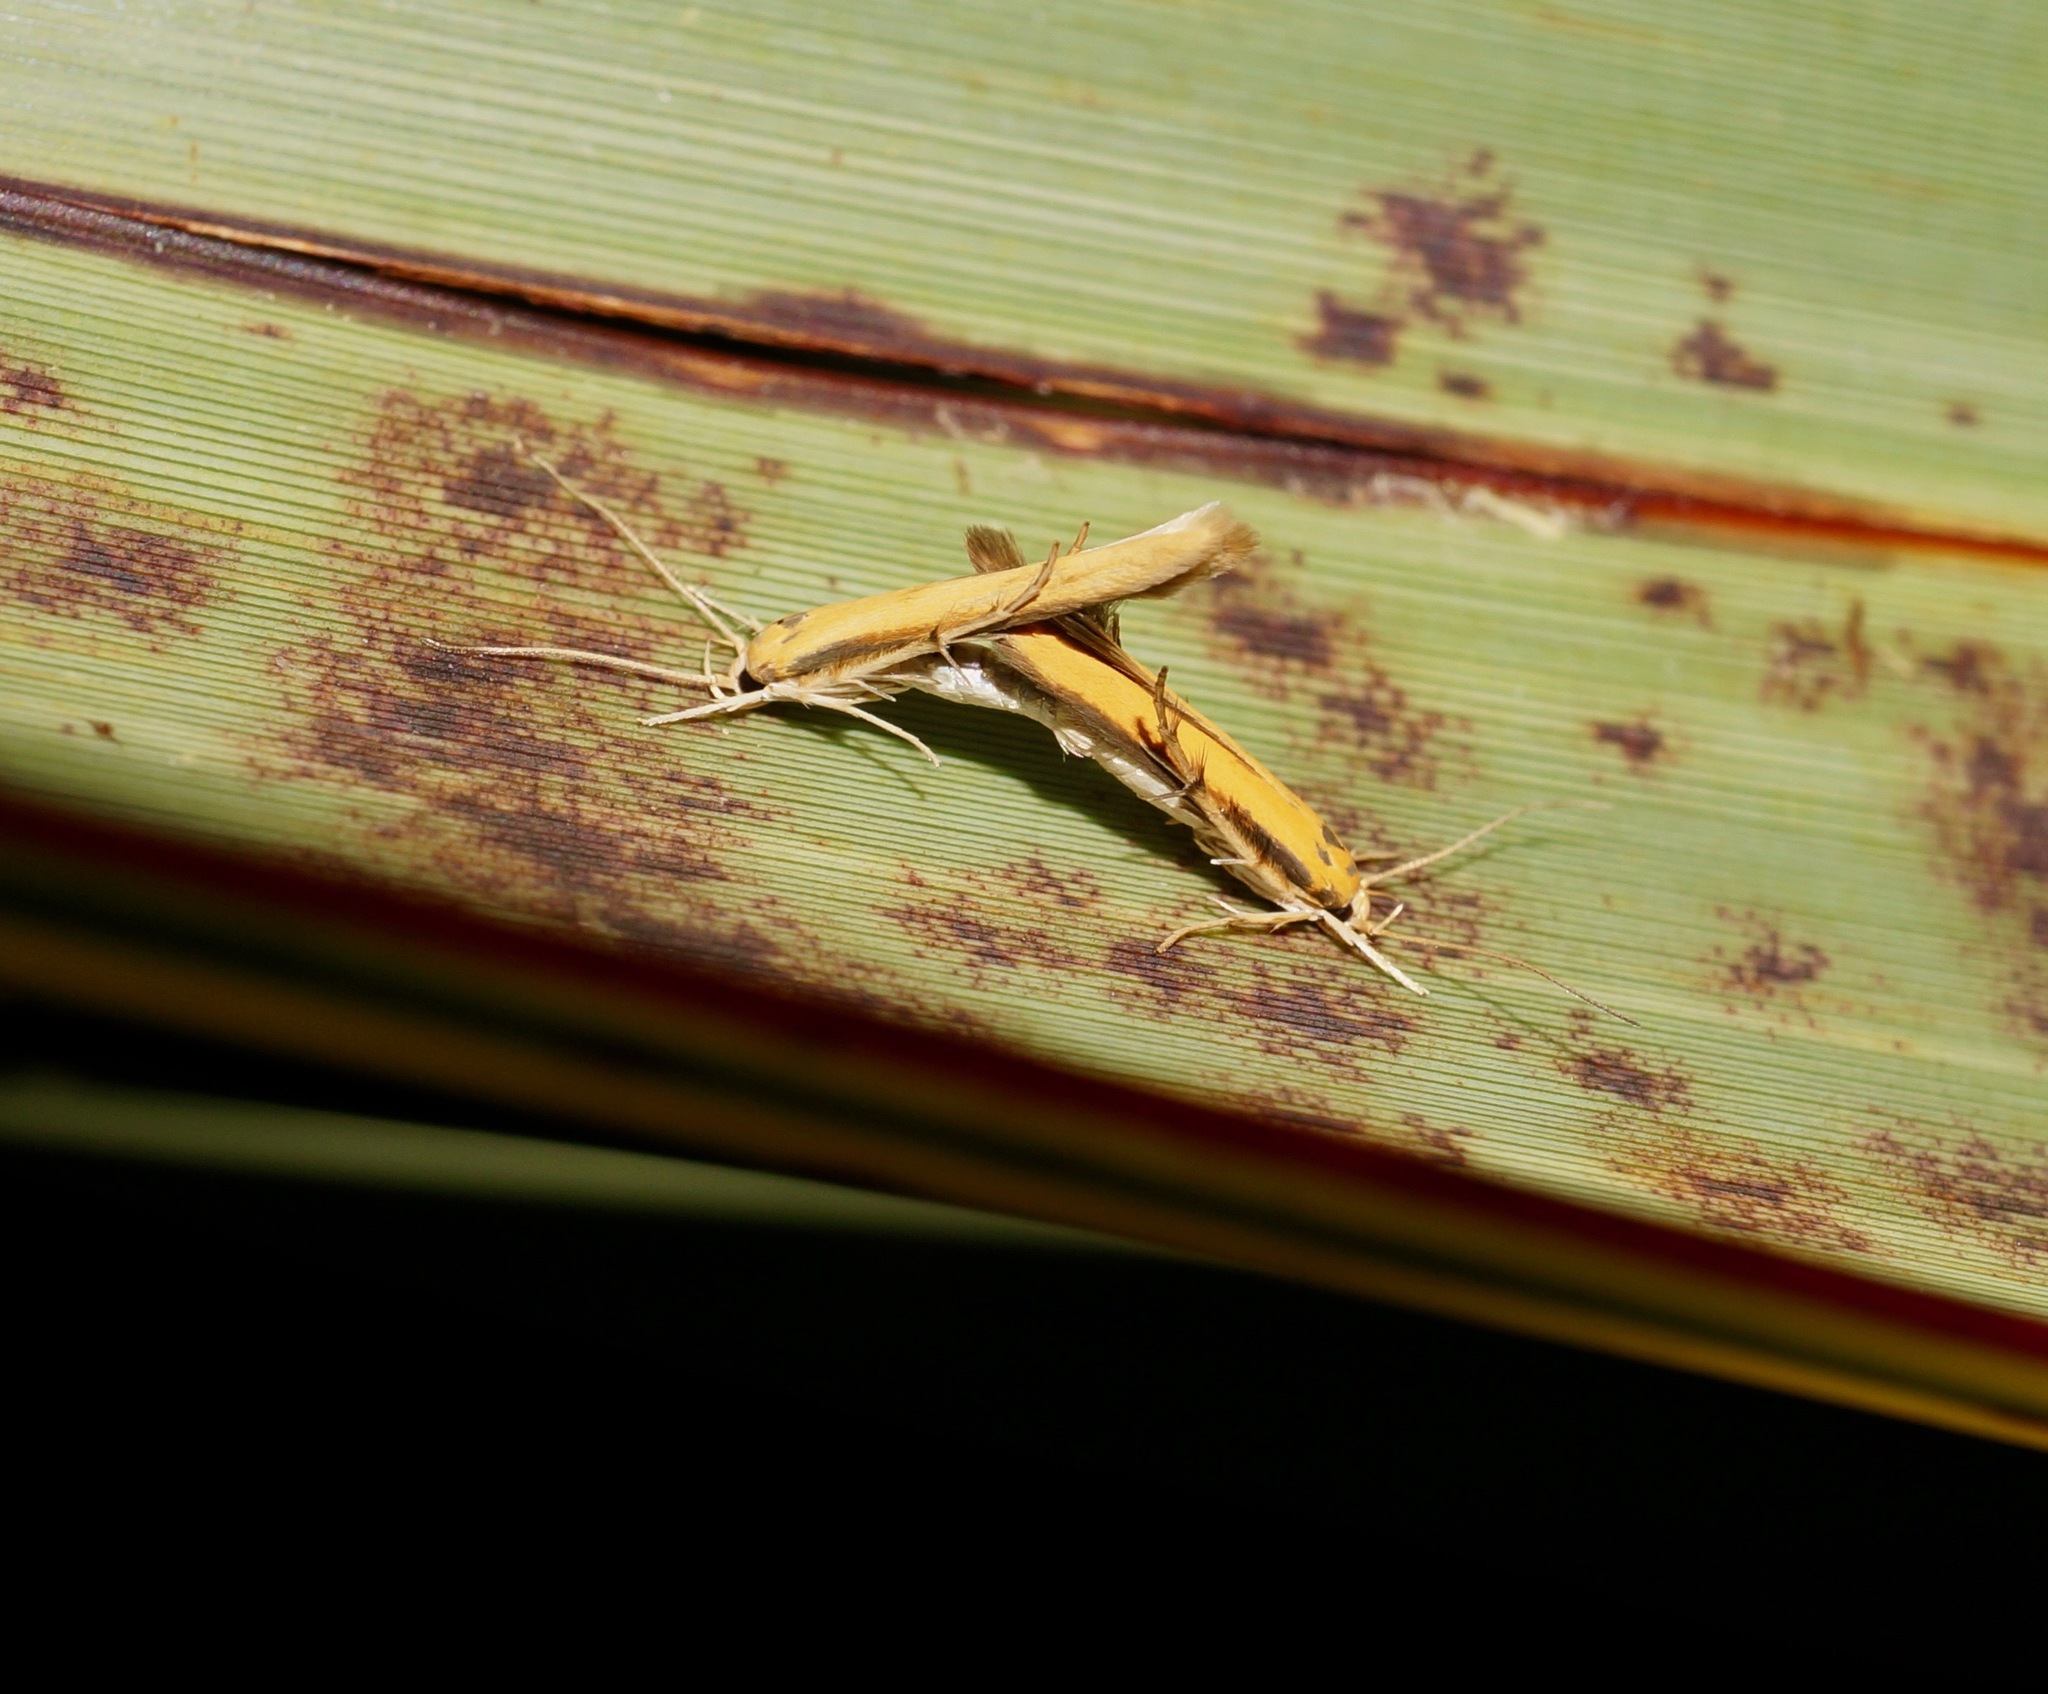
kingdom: Animalia
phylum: Arthropoda
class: Insecta
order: Lepidoptera
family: Stathmopodidae
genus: Stathmopoda
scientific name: Stathmopoda skelloni
